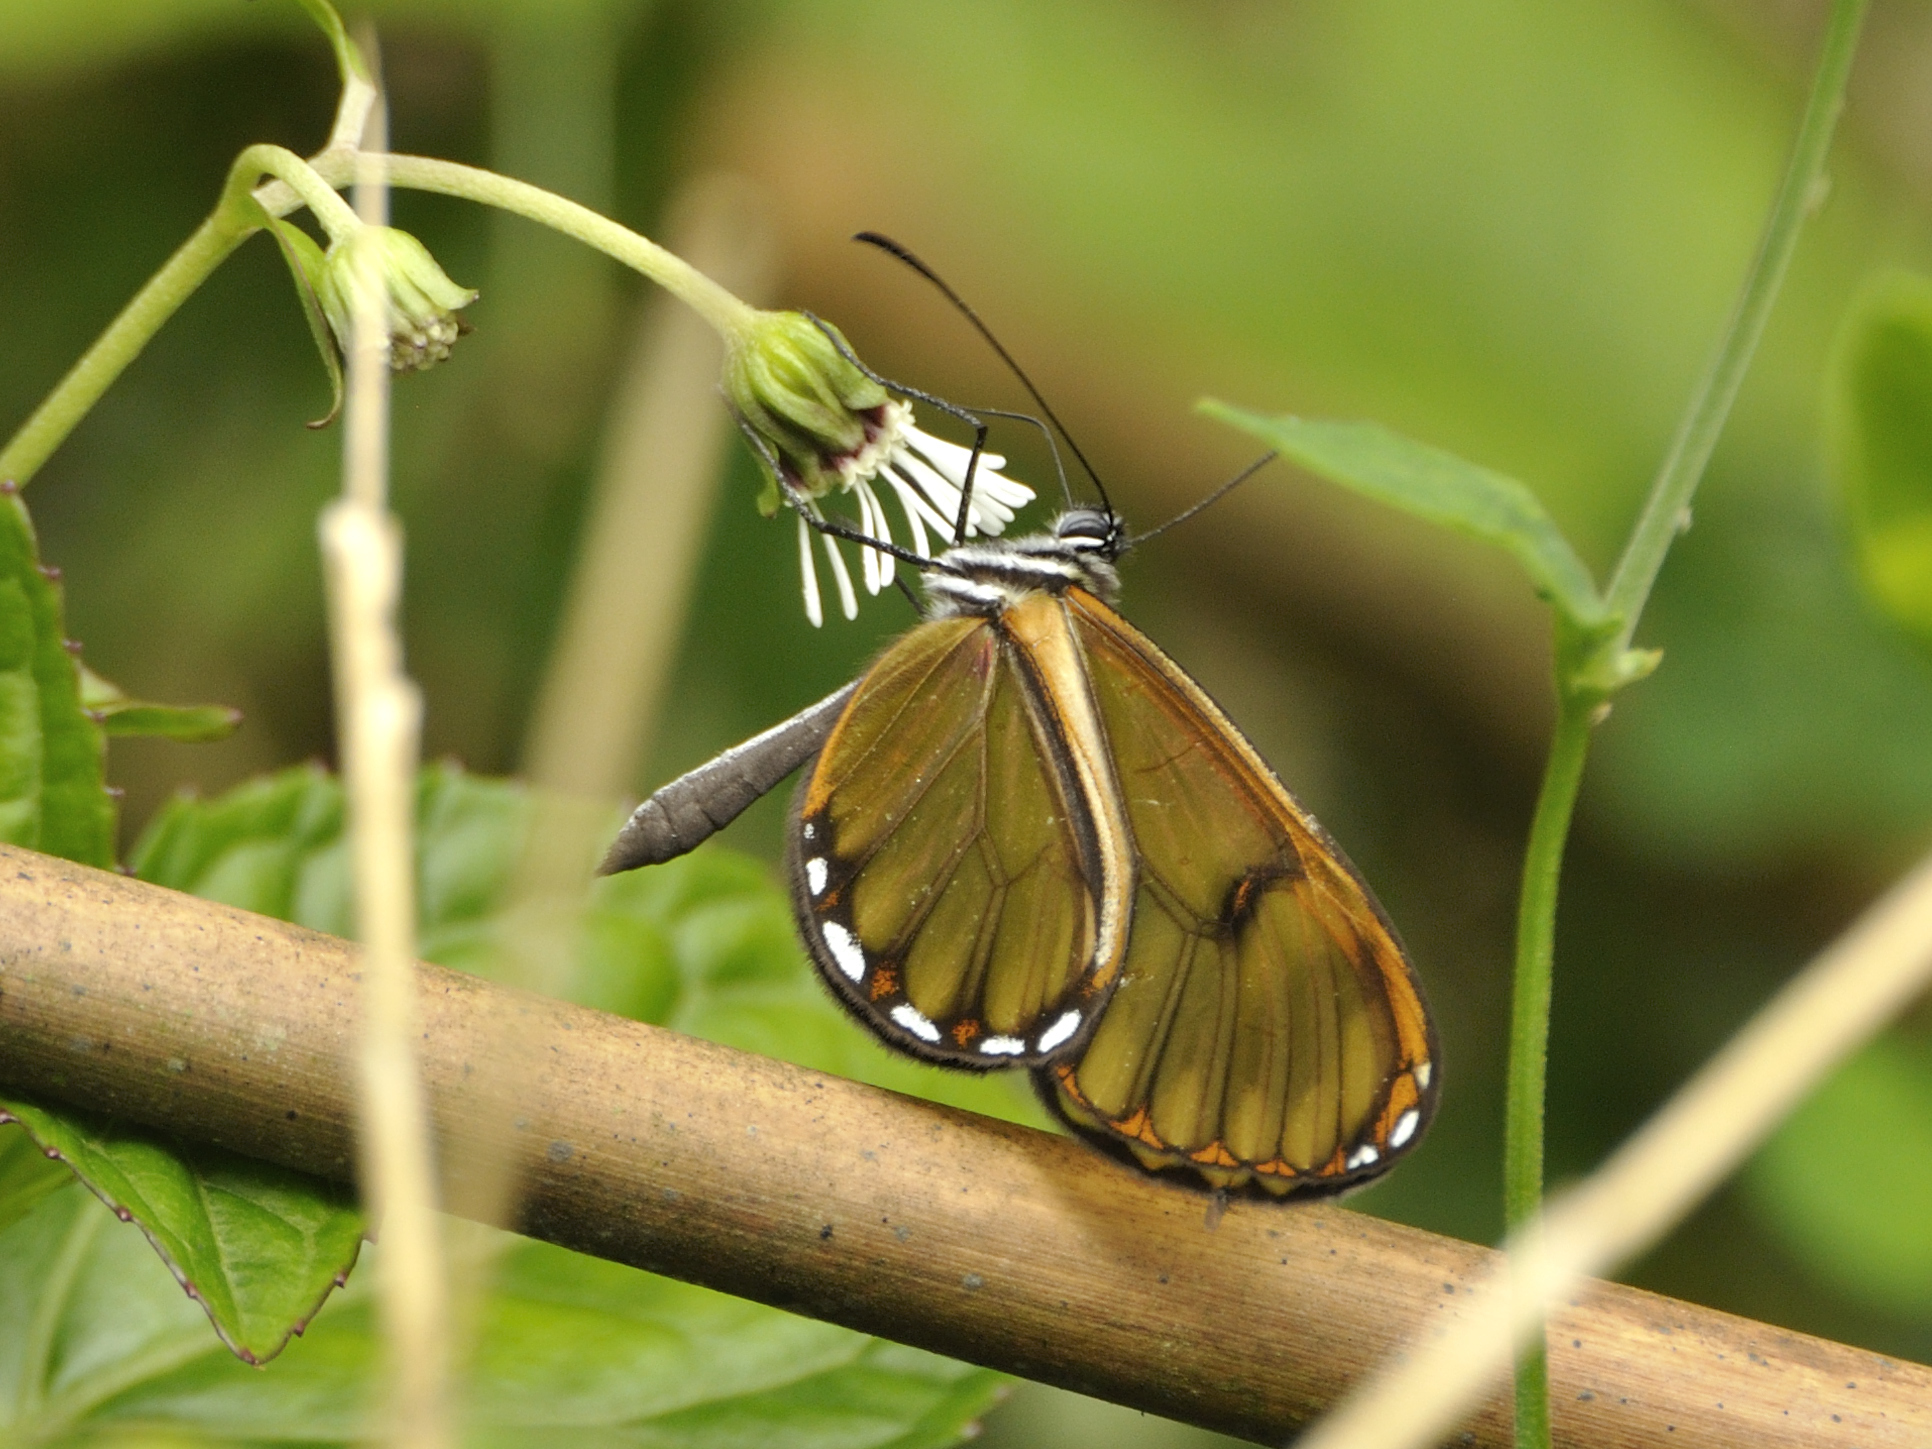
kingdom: Animalia
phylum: Arthropoda
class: Insecta
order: Lepidoptera
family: Nymphalidae
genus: Pteronymia
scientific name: Pteronymia oneida
